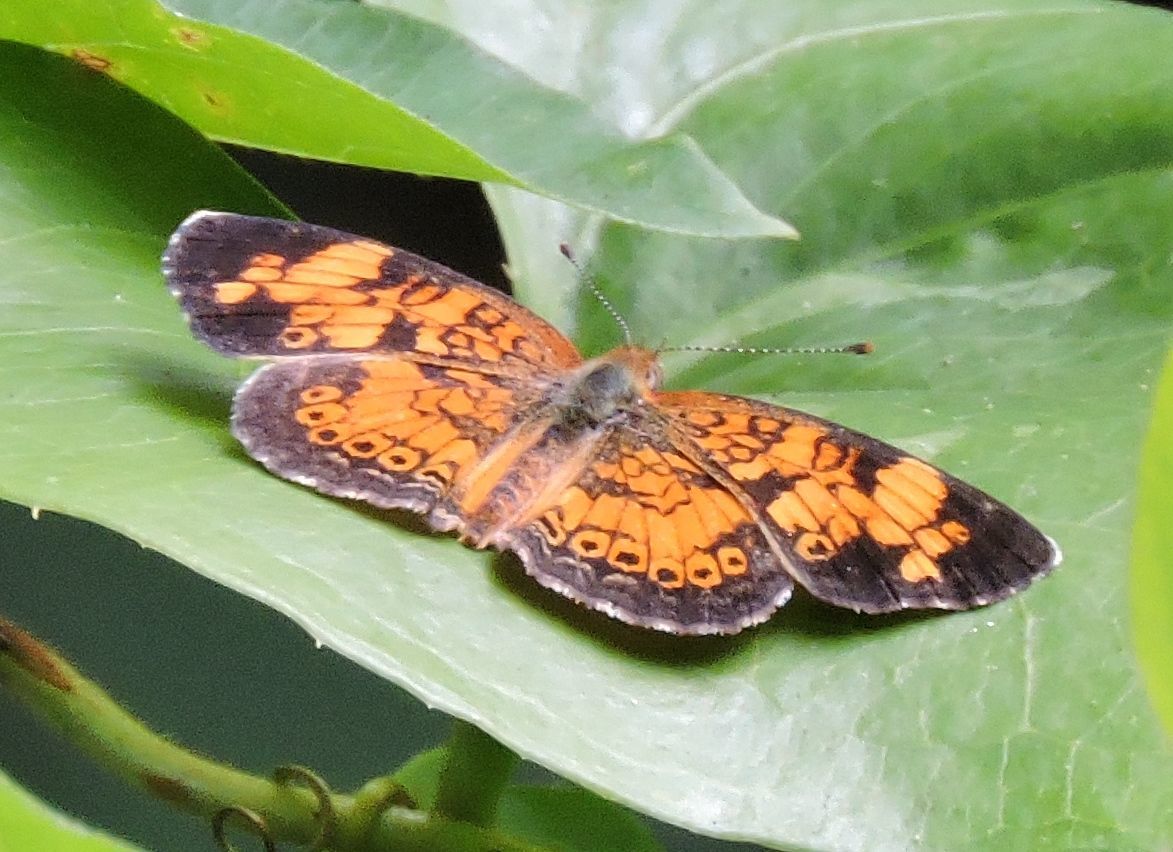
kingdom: Animalia
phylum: Arthropoda
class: Insecta
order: Lepidoptera
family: Nymphalidae
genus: Phyciodes
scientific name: Phyciodes tharos
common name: Pearl crescent
